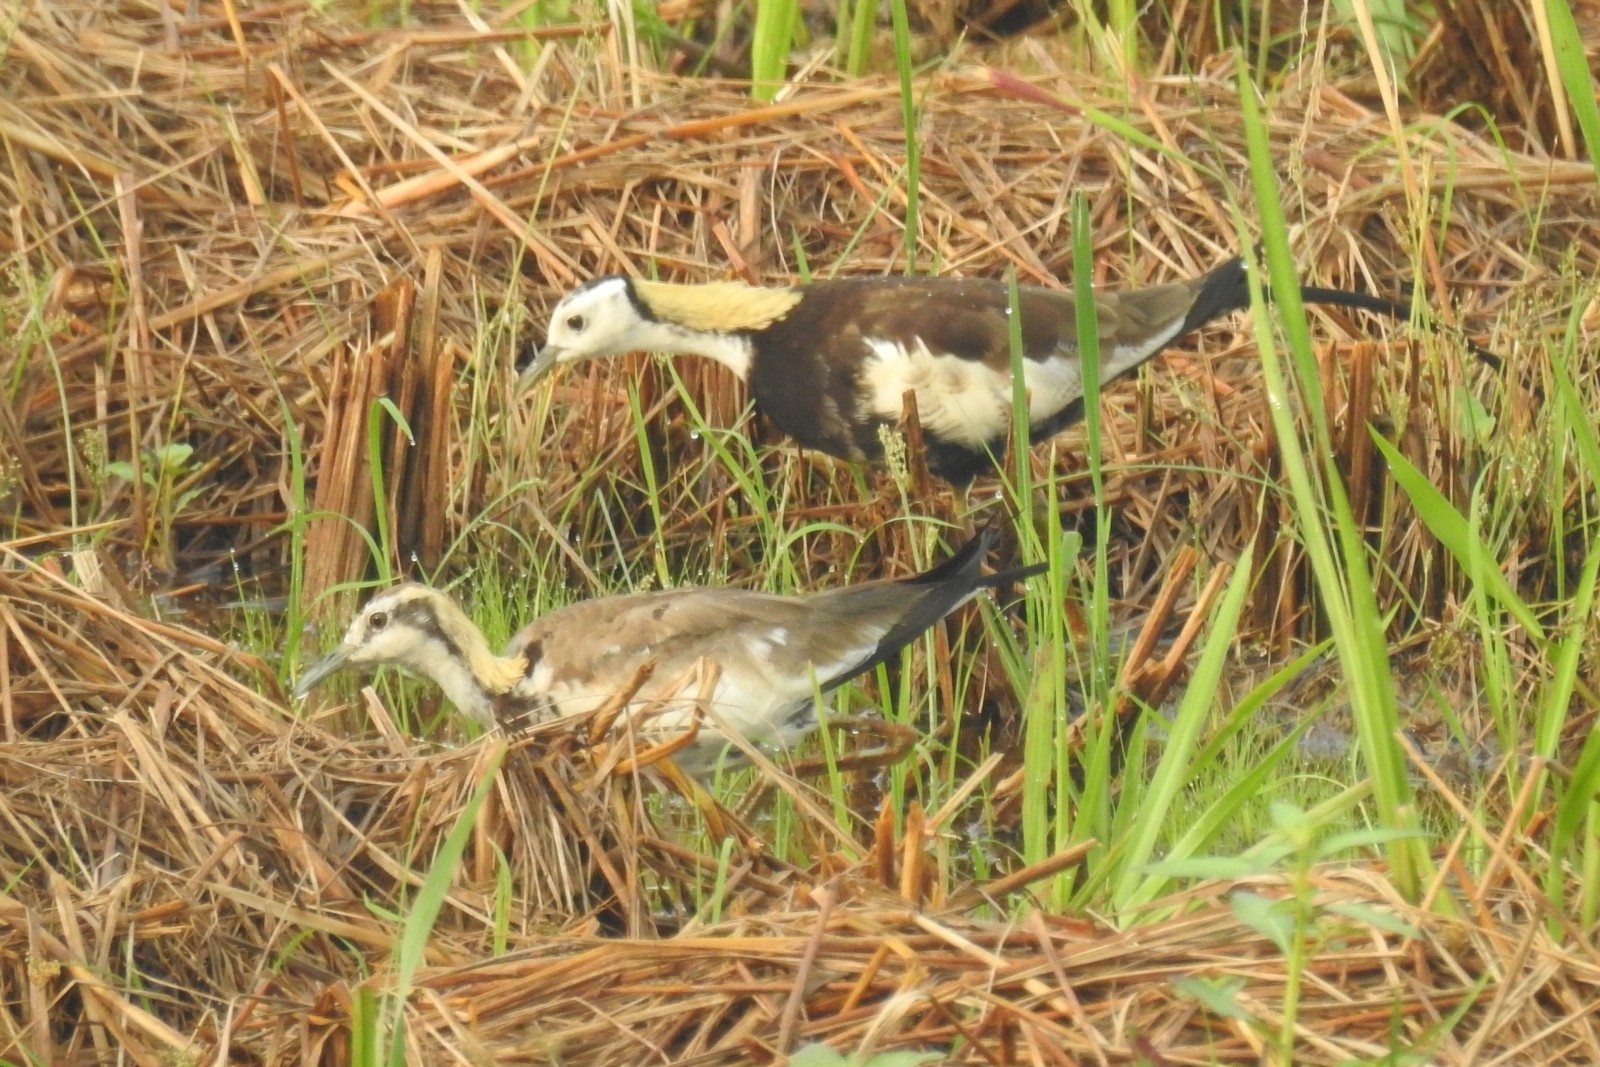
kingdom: Animalia
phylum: Chordata
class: Aves
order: Charadriiformes
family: Jacanidae
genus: Hydrophasianus
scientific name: Hydrophasianus chirurgus
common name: Pheasant-tailed jacana
